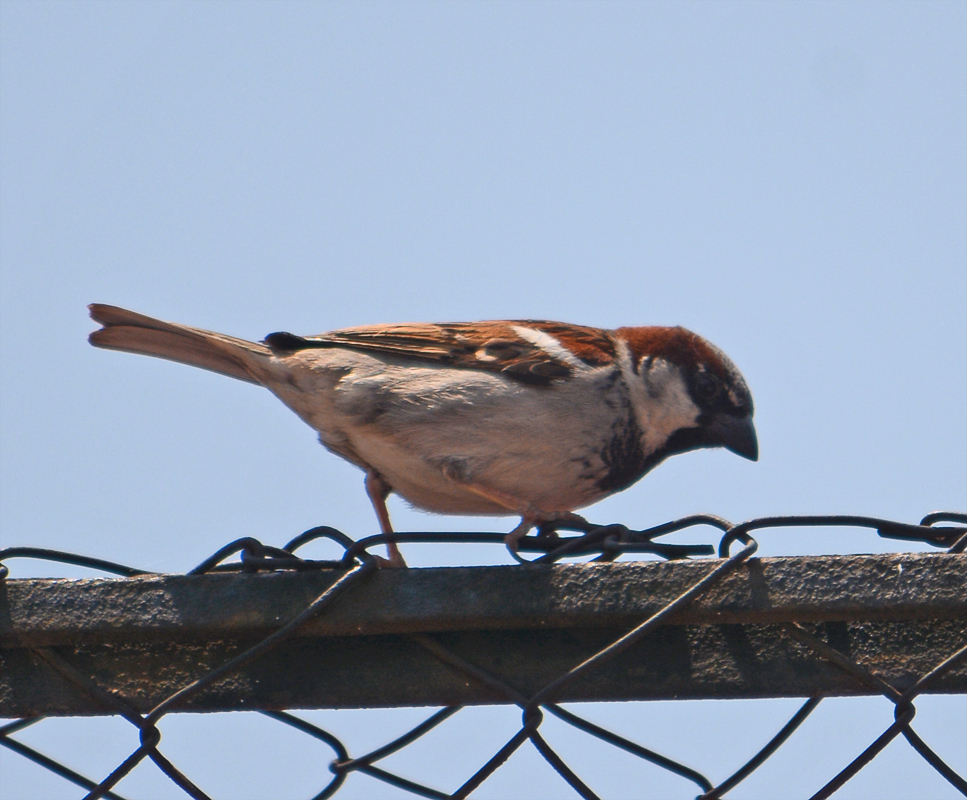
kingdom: Animalia
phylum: Chordata
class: Aves
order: Passeriformes
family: Passeridae
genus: Passer
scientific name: Passer domesticus
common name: House sparrow
